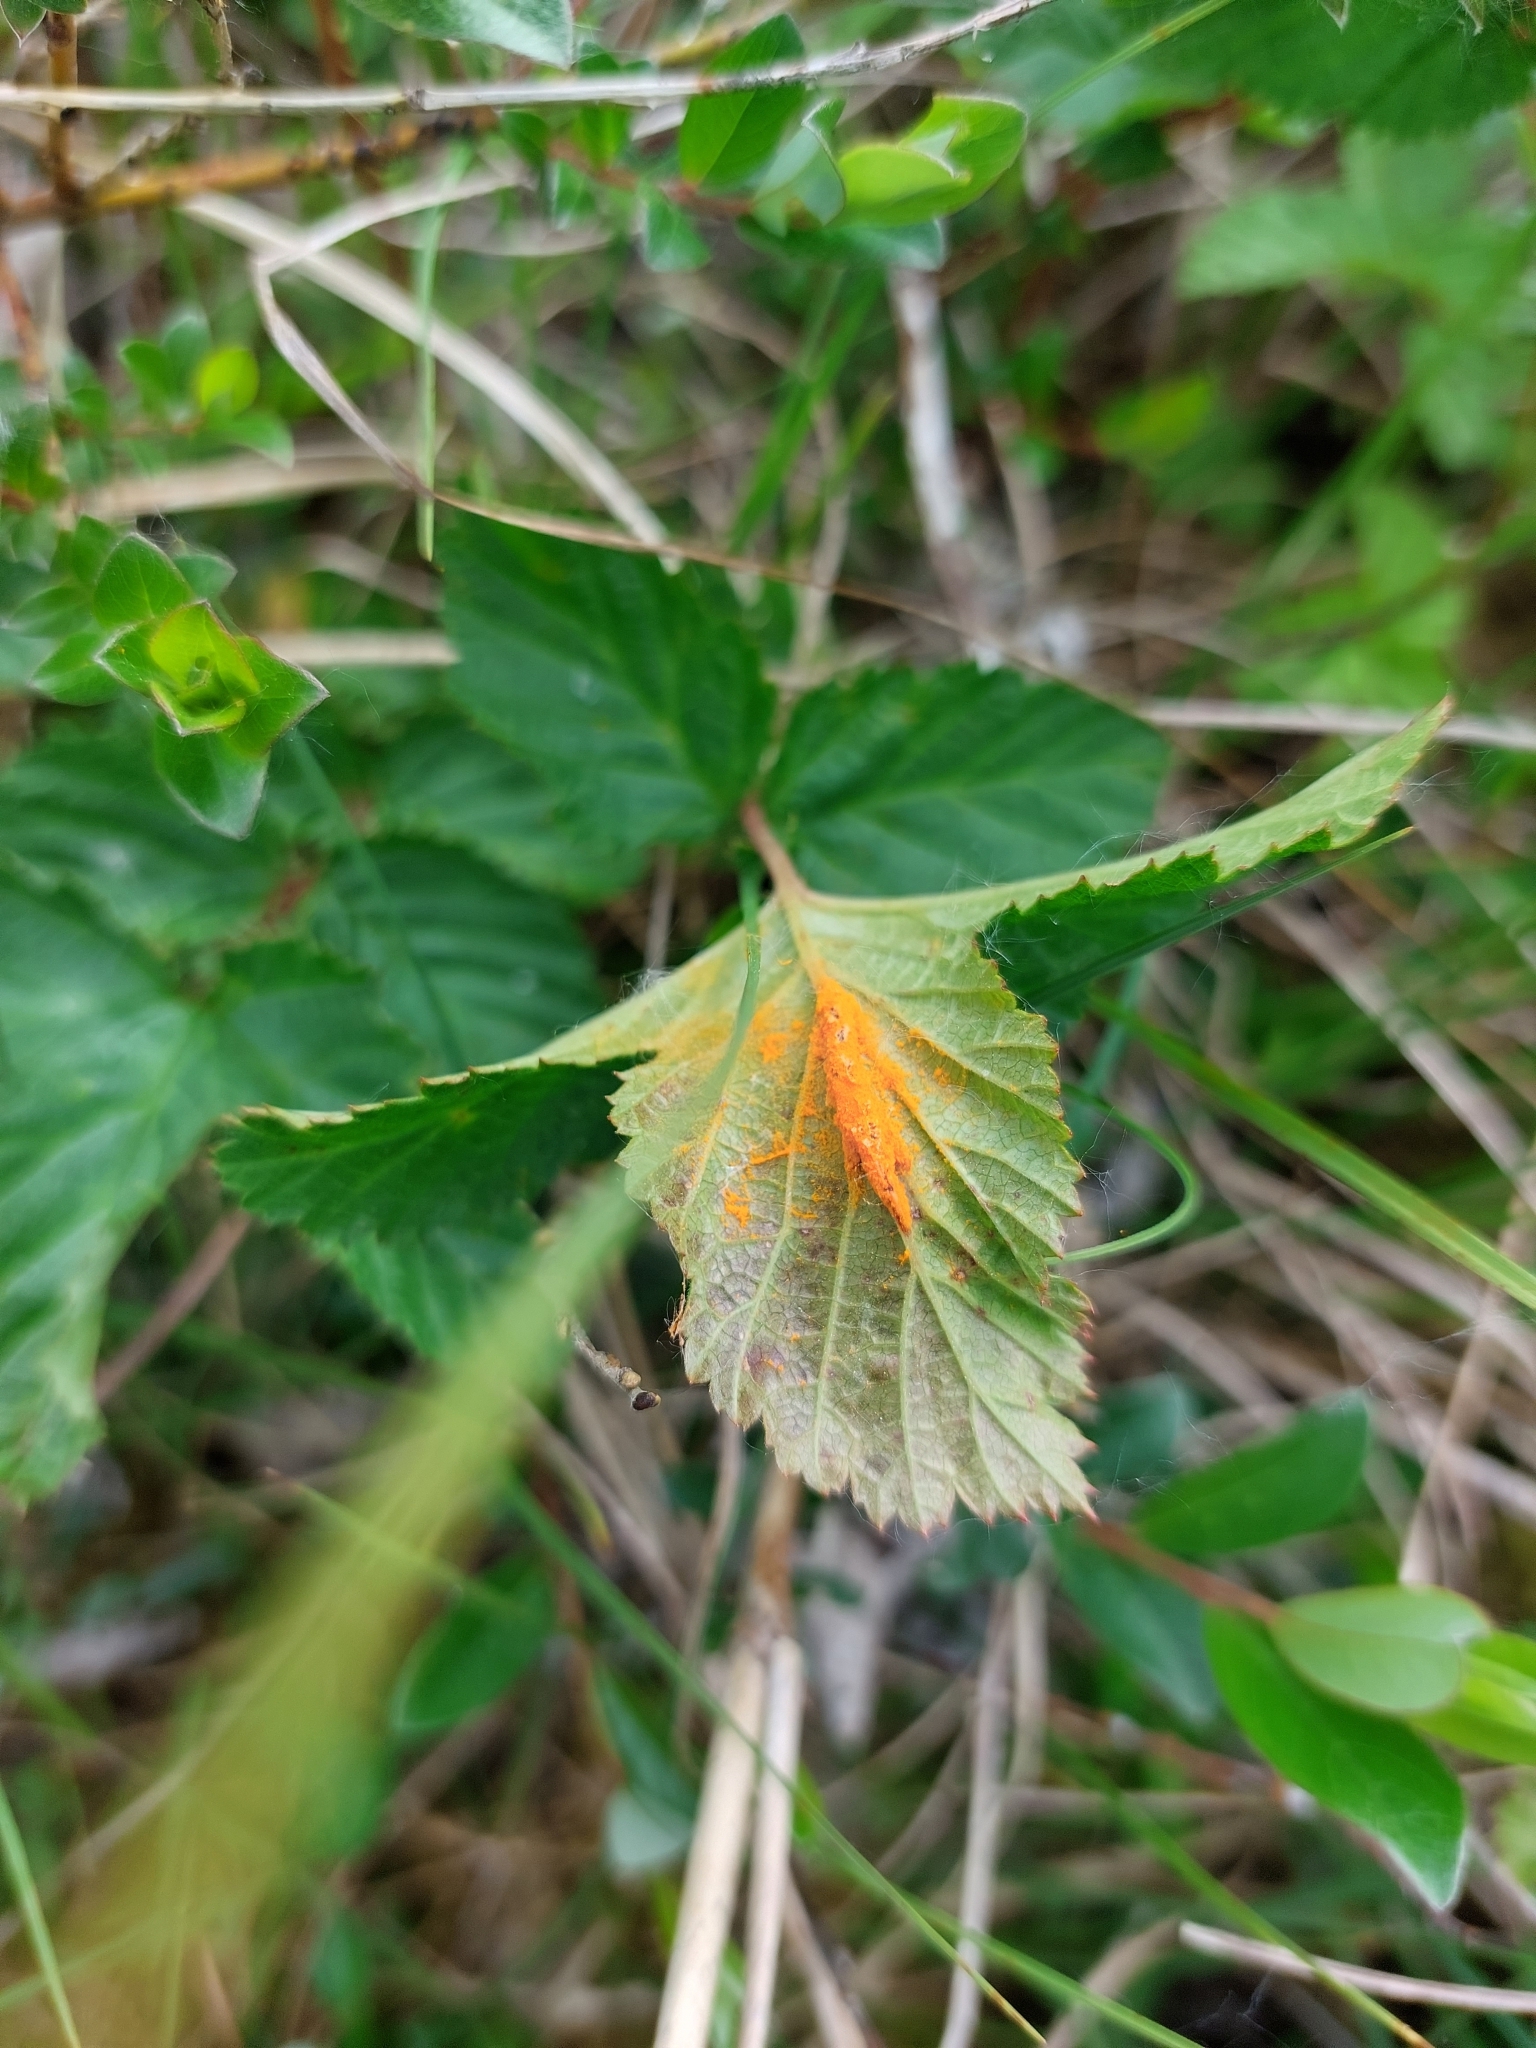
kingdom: Fungi
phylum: Basidiomycota
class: Pucciniomycetes
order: Pucciniales
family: Raveneliaceae
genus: Triphragmium
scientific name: Triphragmium ulmariae
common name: Meadowsweet rust
